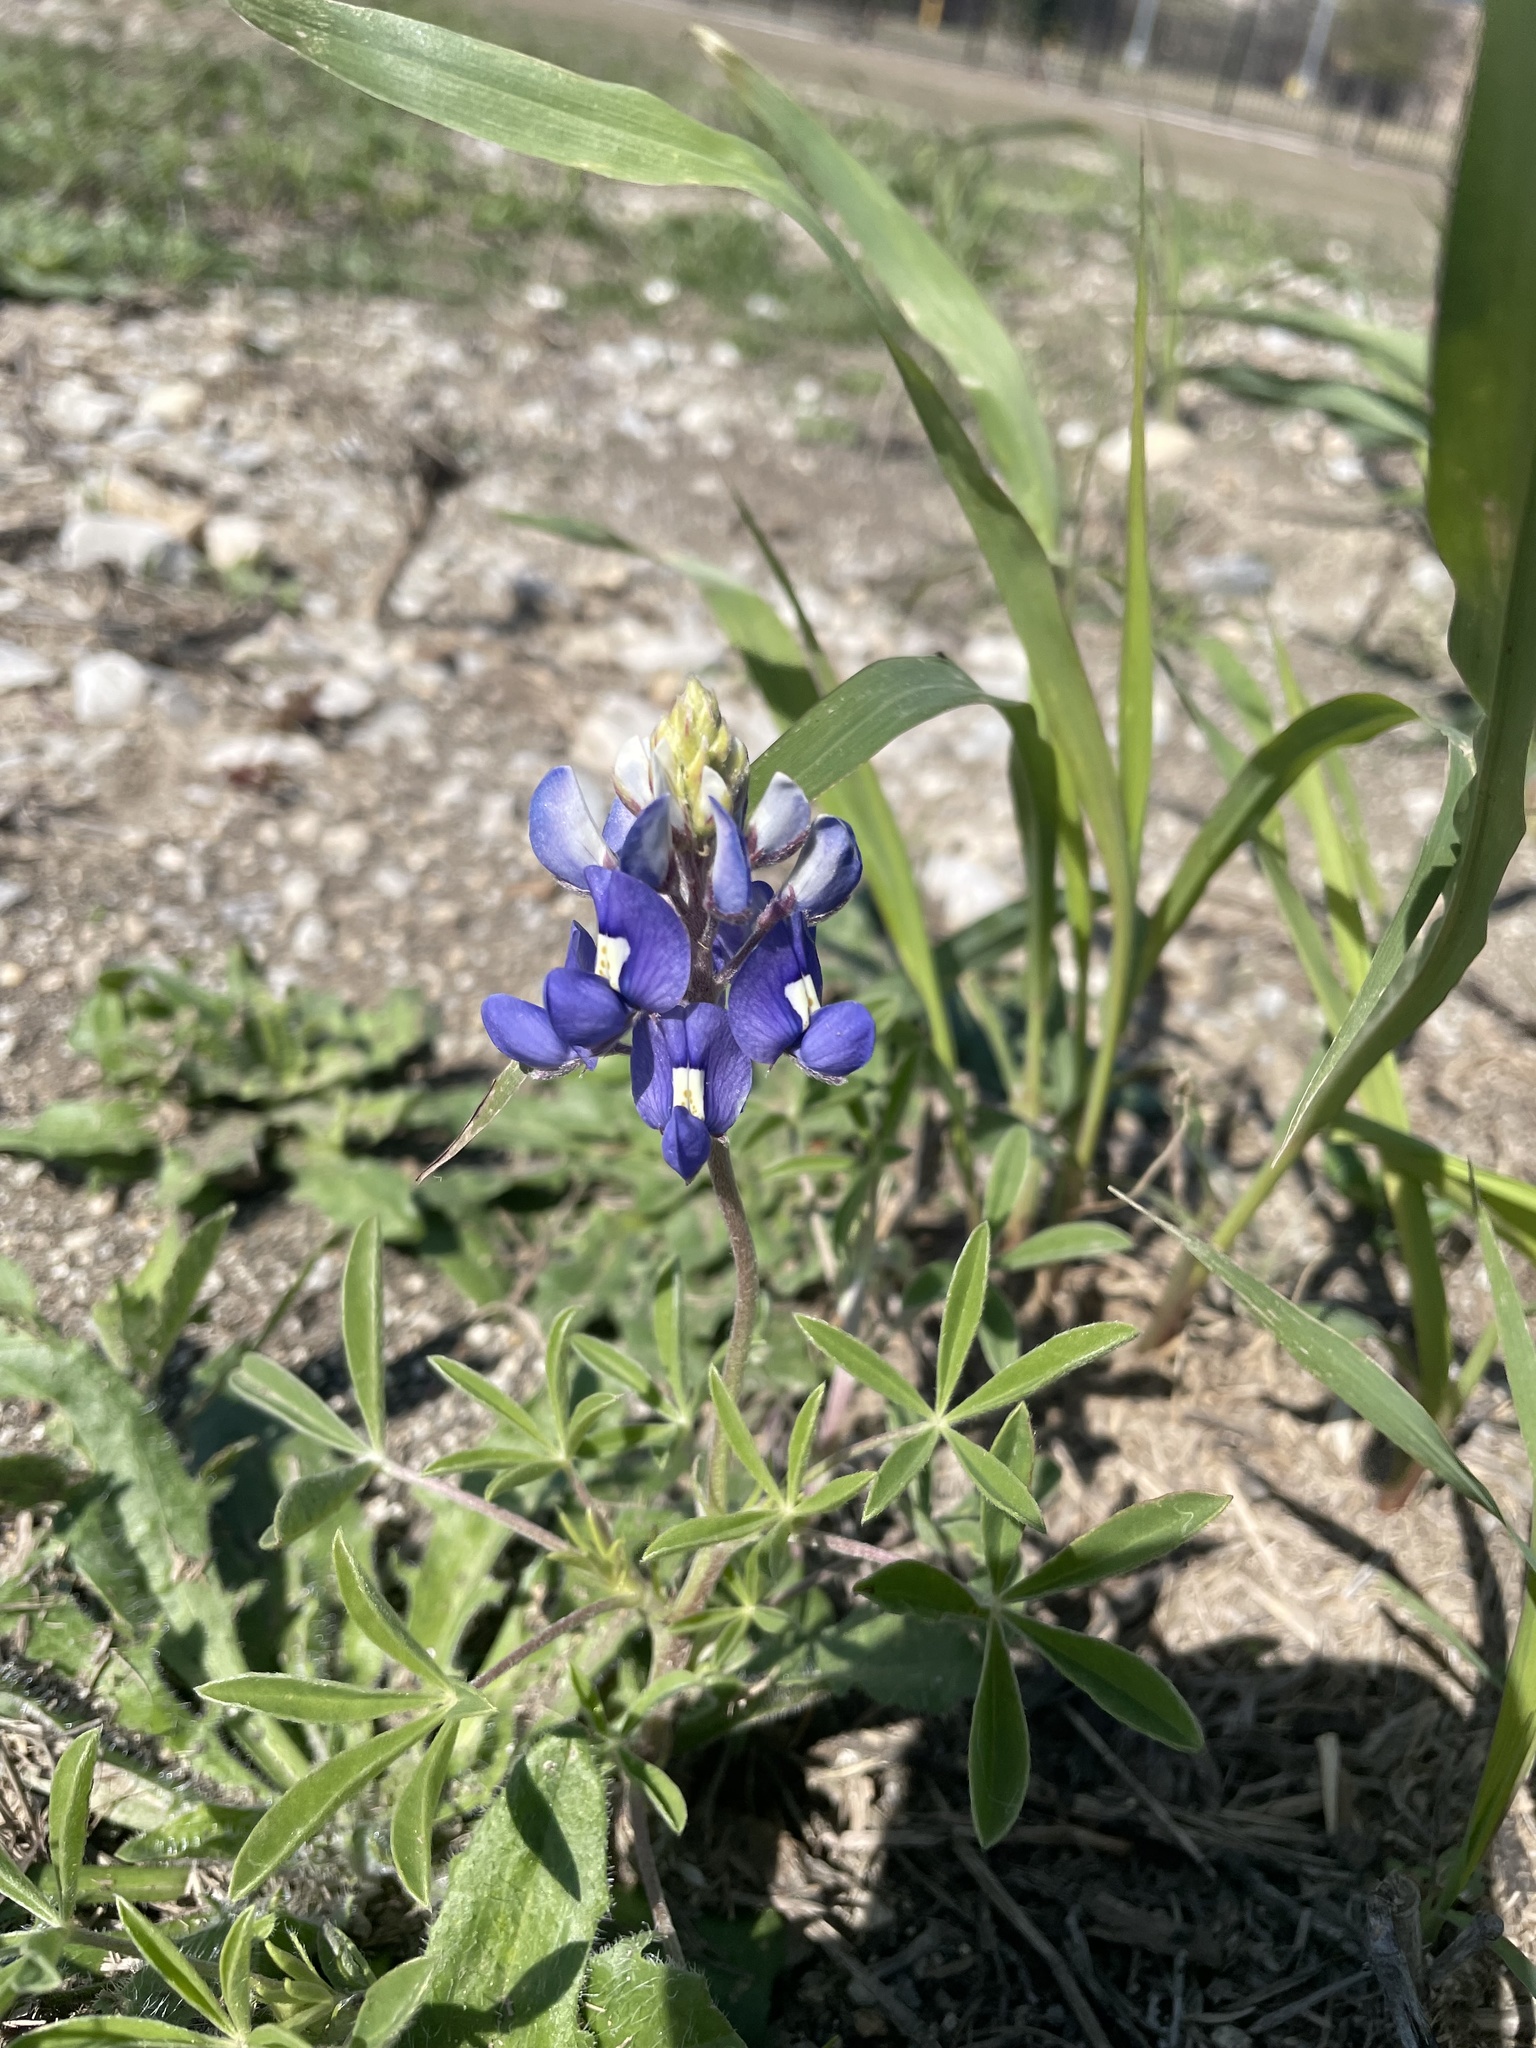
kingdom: Plantae
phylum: Tracheophyta
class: Magnoliopsida
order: Fabales
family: Fabaceae
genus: Lupinus
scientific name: Lupinus texensis
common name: Texas bluebonnet
